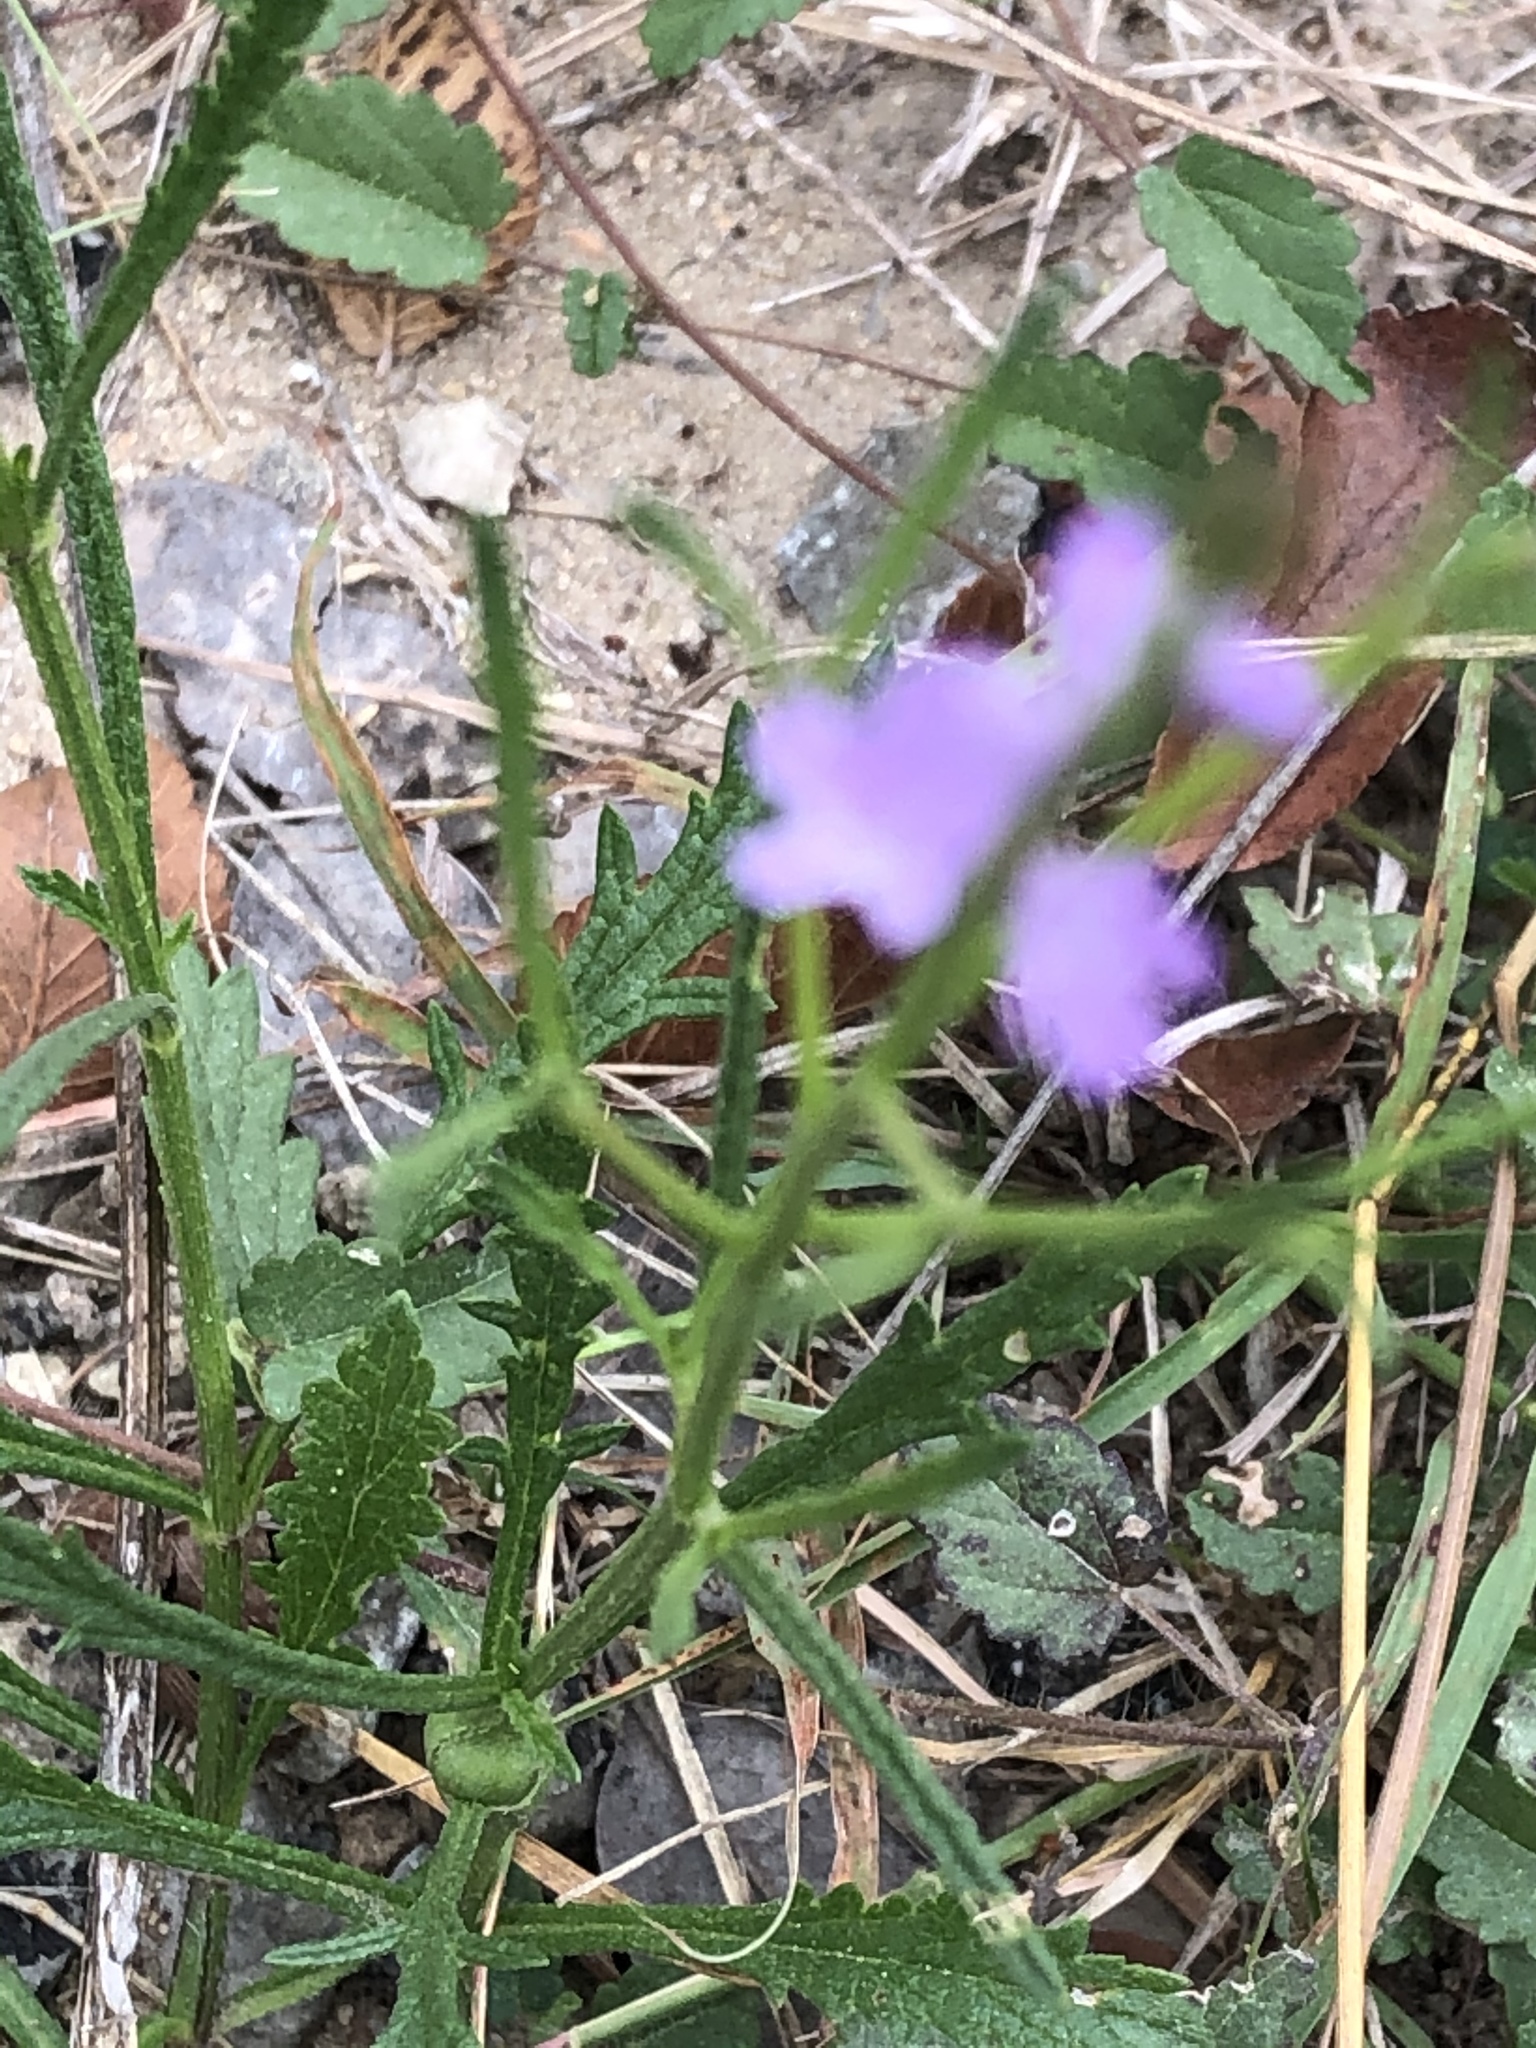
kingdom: Plantae
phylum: Tracheophyta
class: Magnoliopsida
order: Lamiales
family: Verbenaceae
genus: Verbena
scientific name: Verbena halei
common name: Texas vervain
